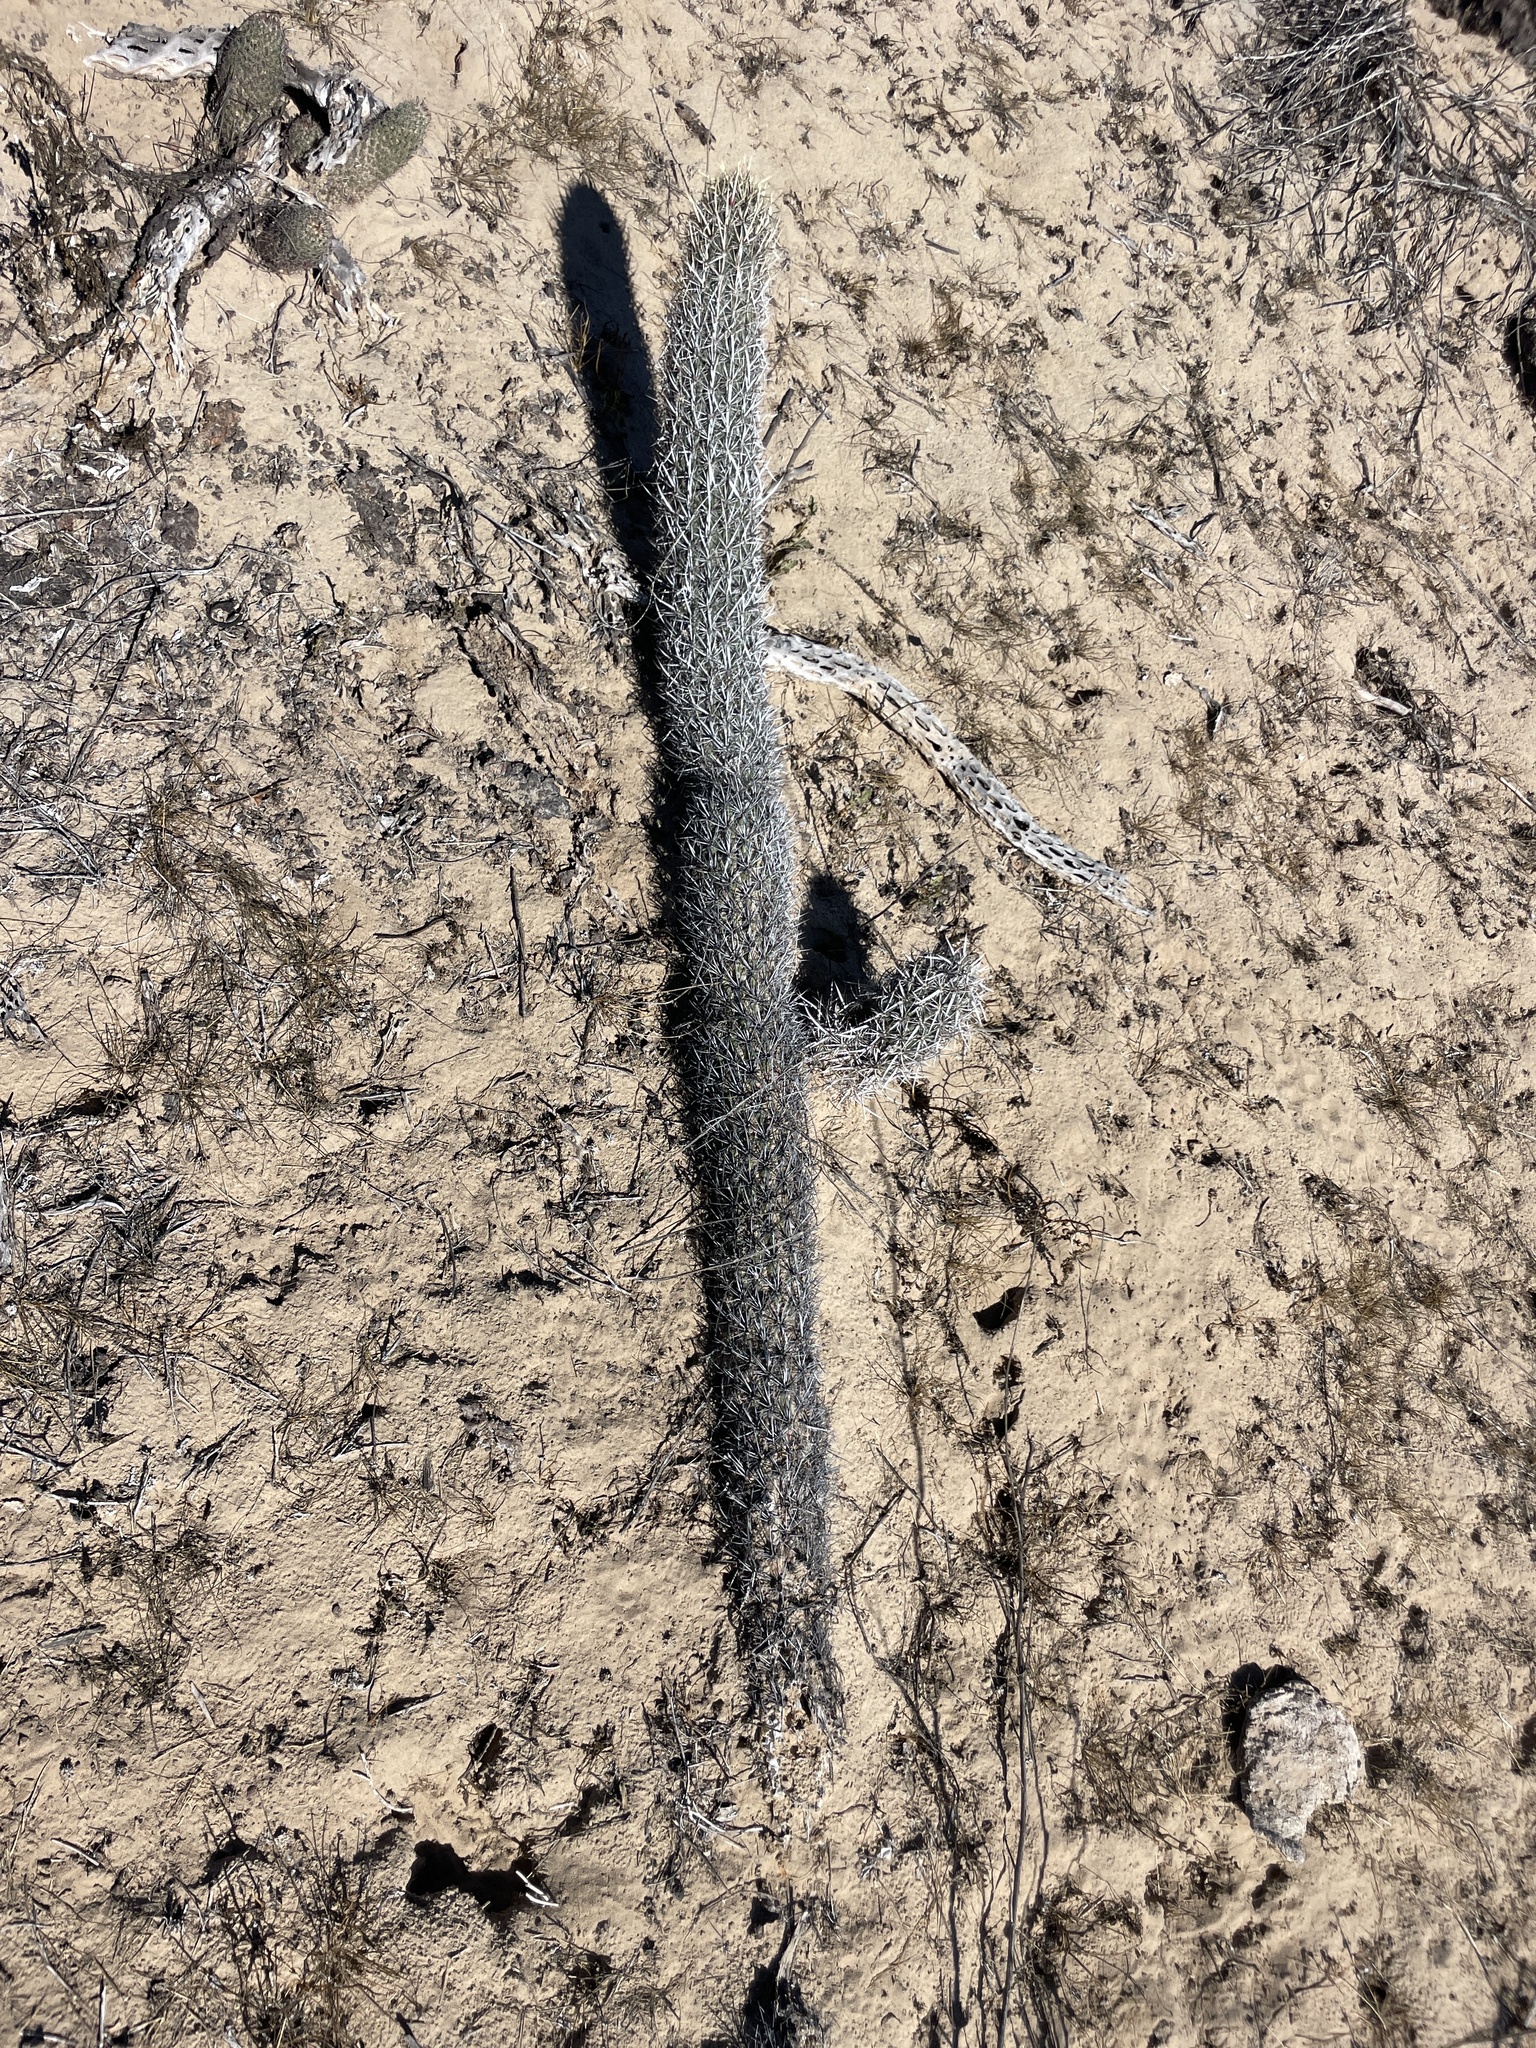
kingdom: Plantae
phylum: Tracheophyta
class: Magnoliopsida
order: Caryophyllales
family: Cactaceae
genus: Stenocereus
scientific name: Stenocereus eruca
